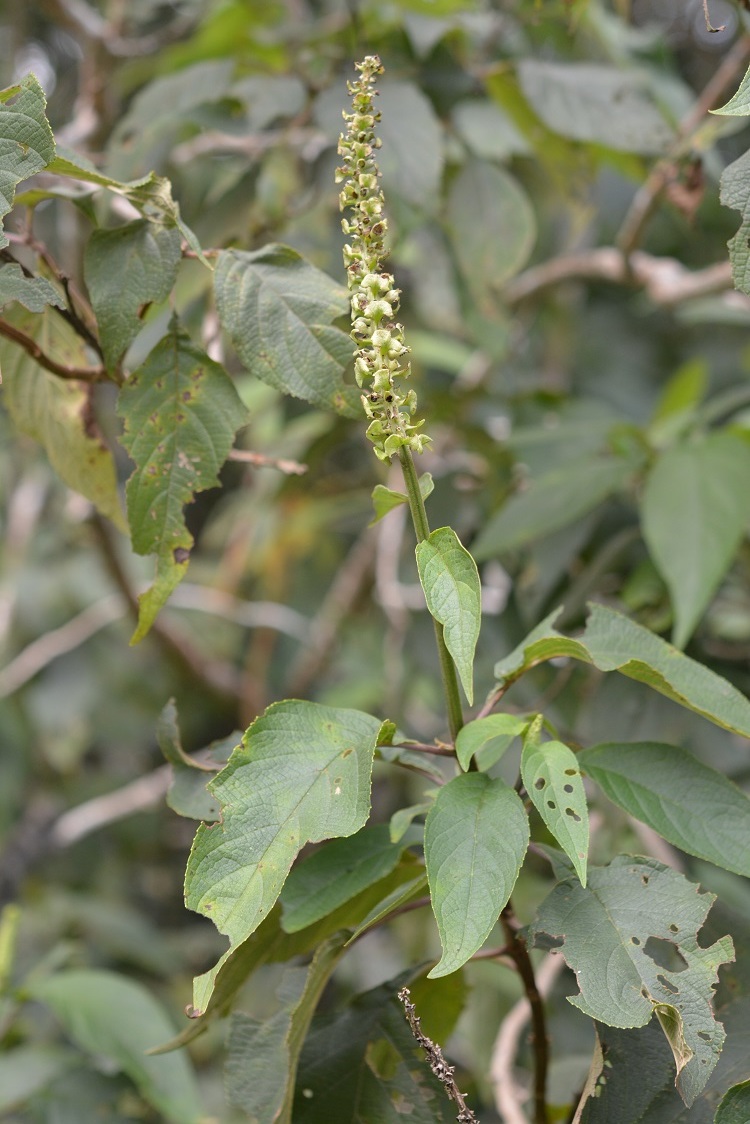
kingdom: Plantae
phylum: Tracheophyta
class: Magnoliopsida
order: Lamiales
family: Lamiaceae
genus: Catoferia
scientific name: Catoferia chiapensis
